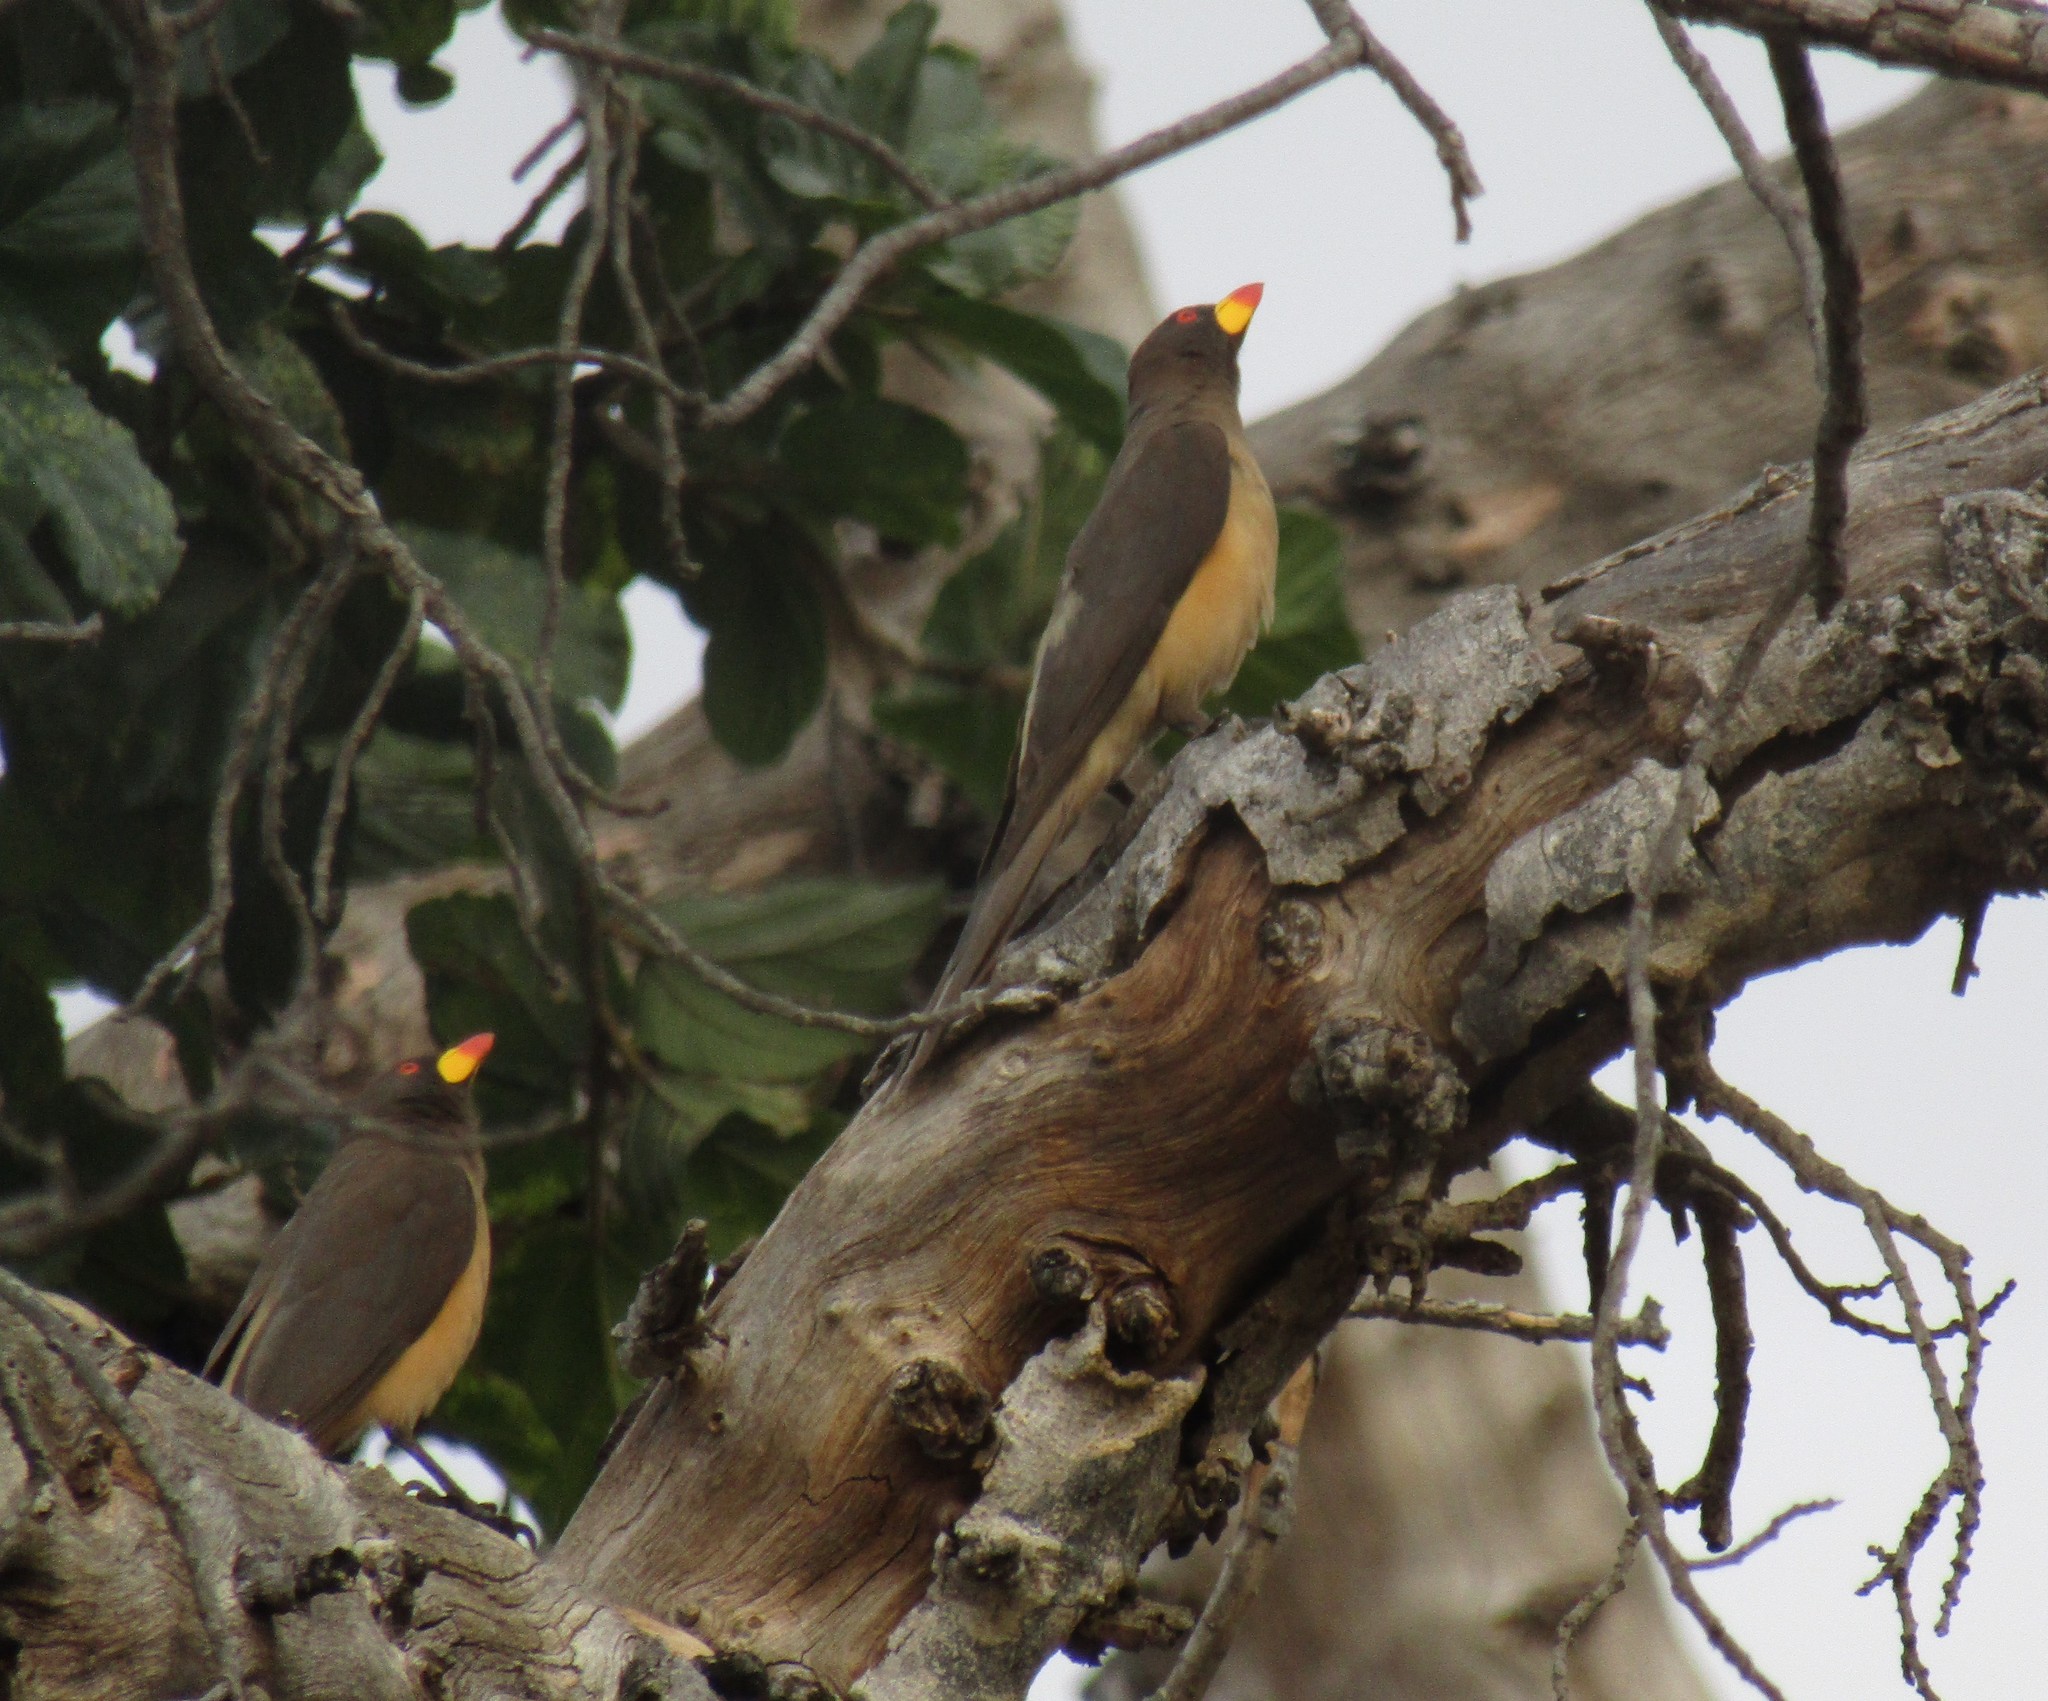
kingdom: Animalia
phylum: Chordata
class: Aves
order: Passeriformes
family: Buphagidae
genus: Buphagus
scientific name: Buphagus africanus
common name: Yellow-billed oxpecker
